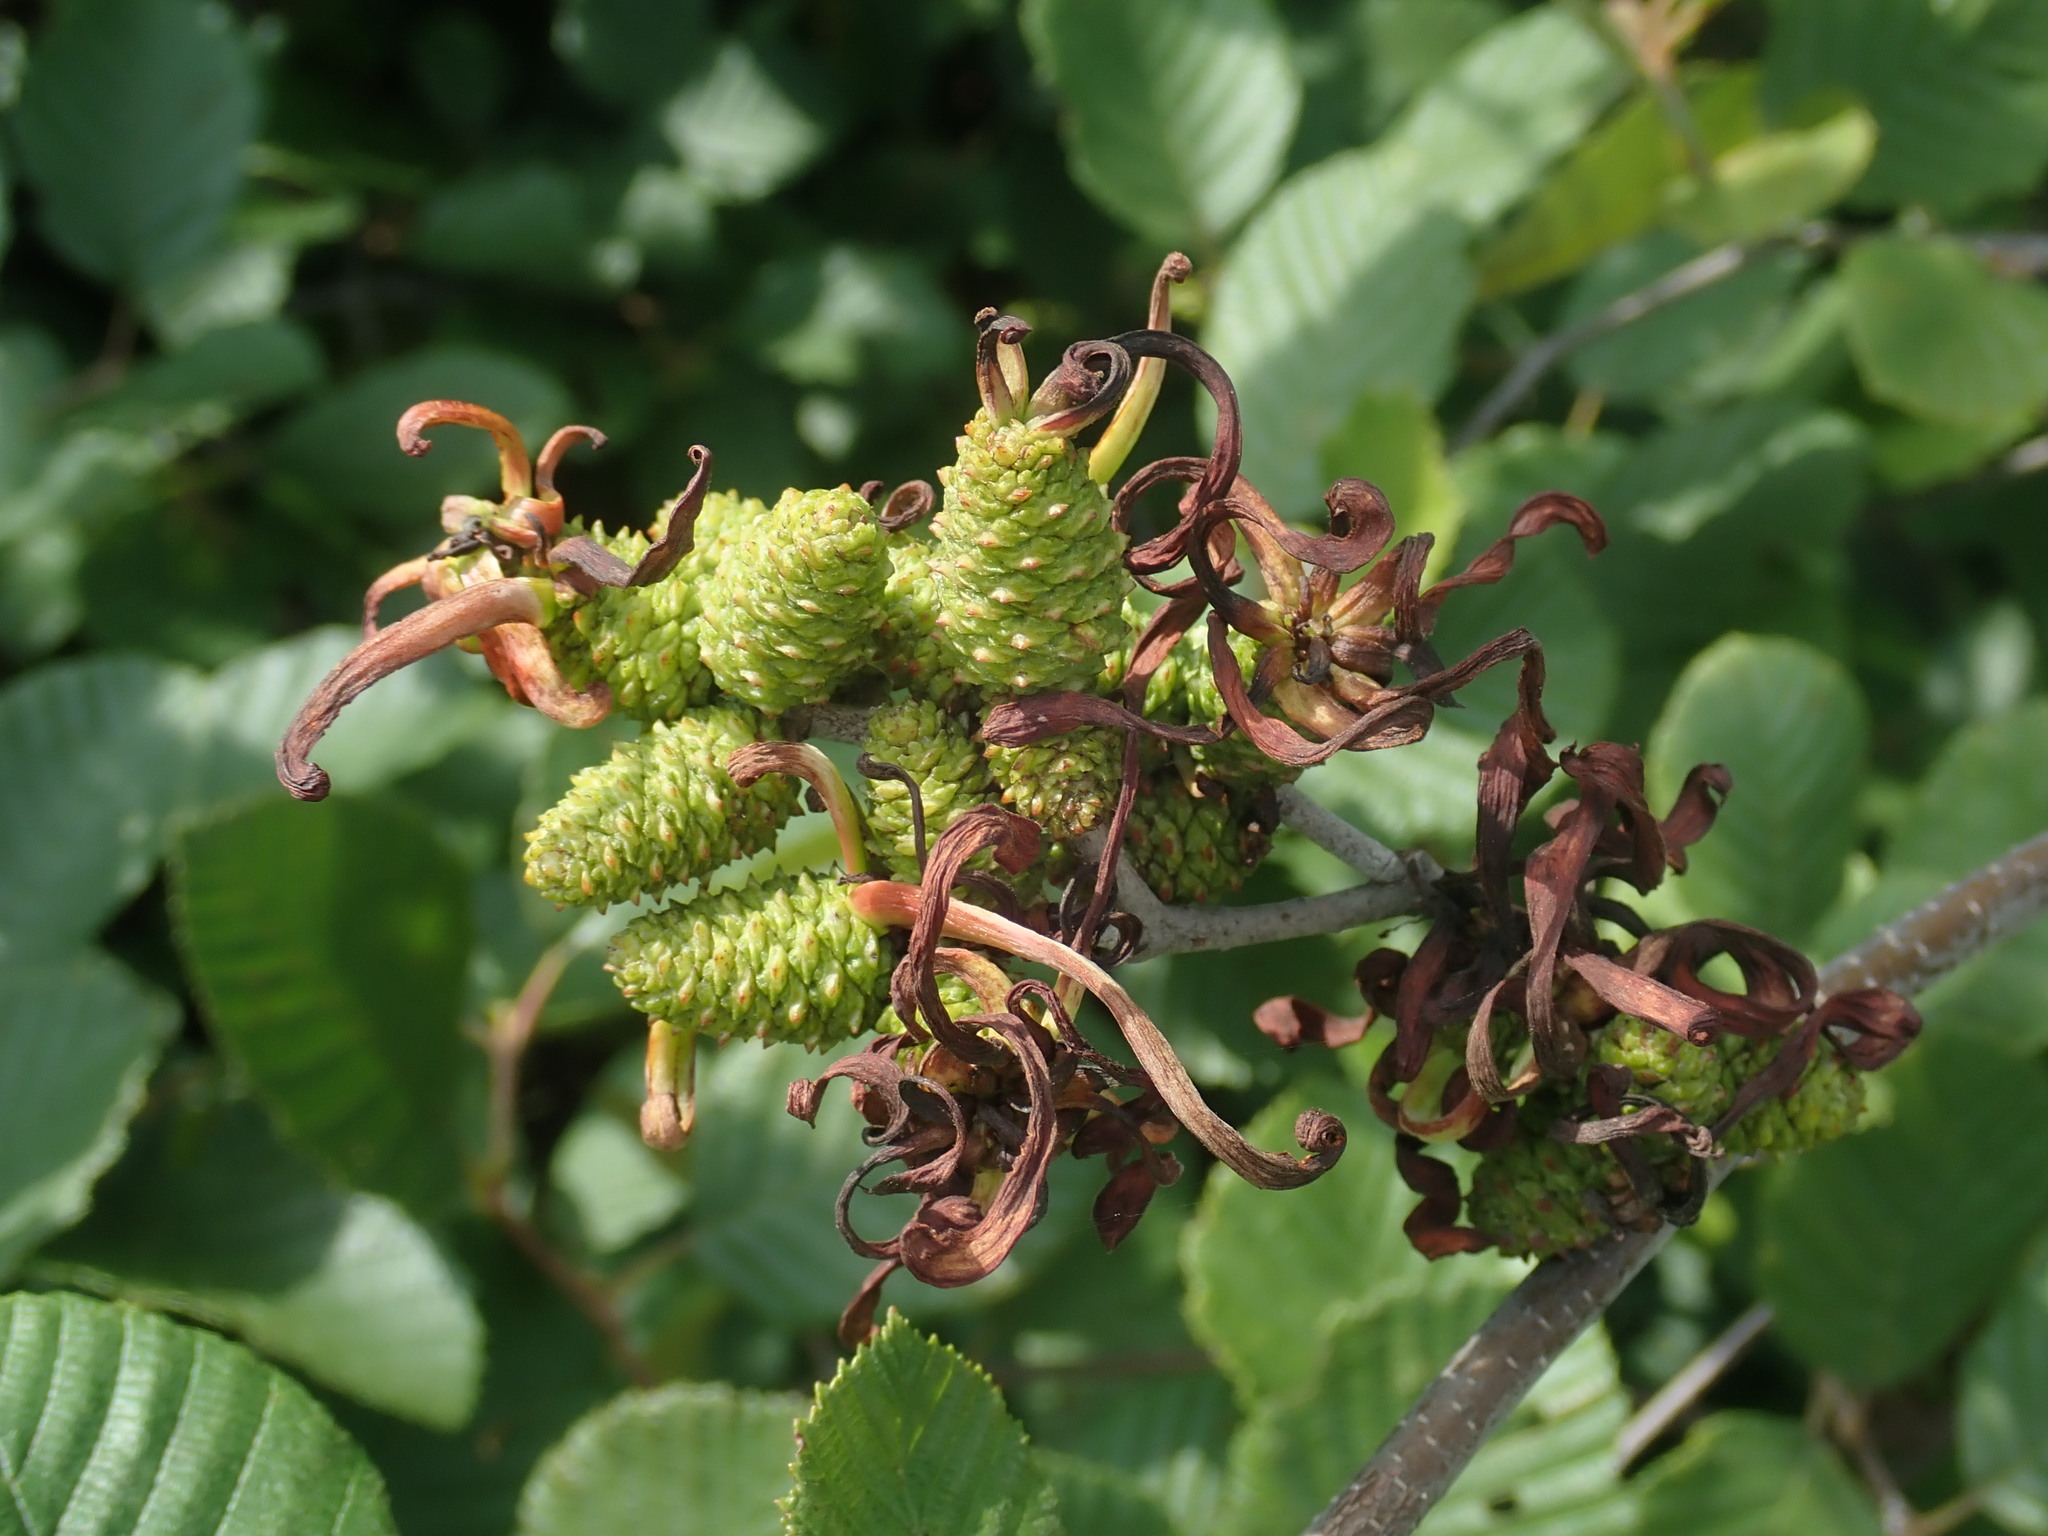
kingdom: Fungi
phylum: Ascomycota
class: Taphrinomycetes
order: Taphrinales
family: Taphrinaceae
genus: Taphrina
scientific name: Taphrina robinsoniana
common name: Eastern american alder tongue gall fungus
